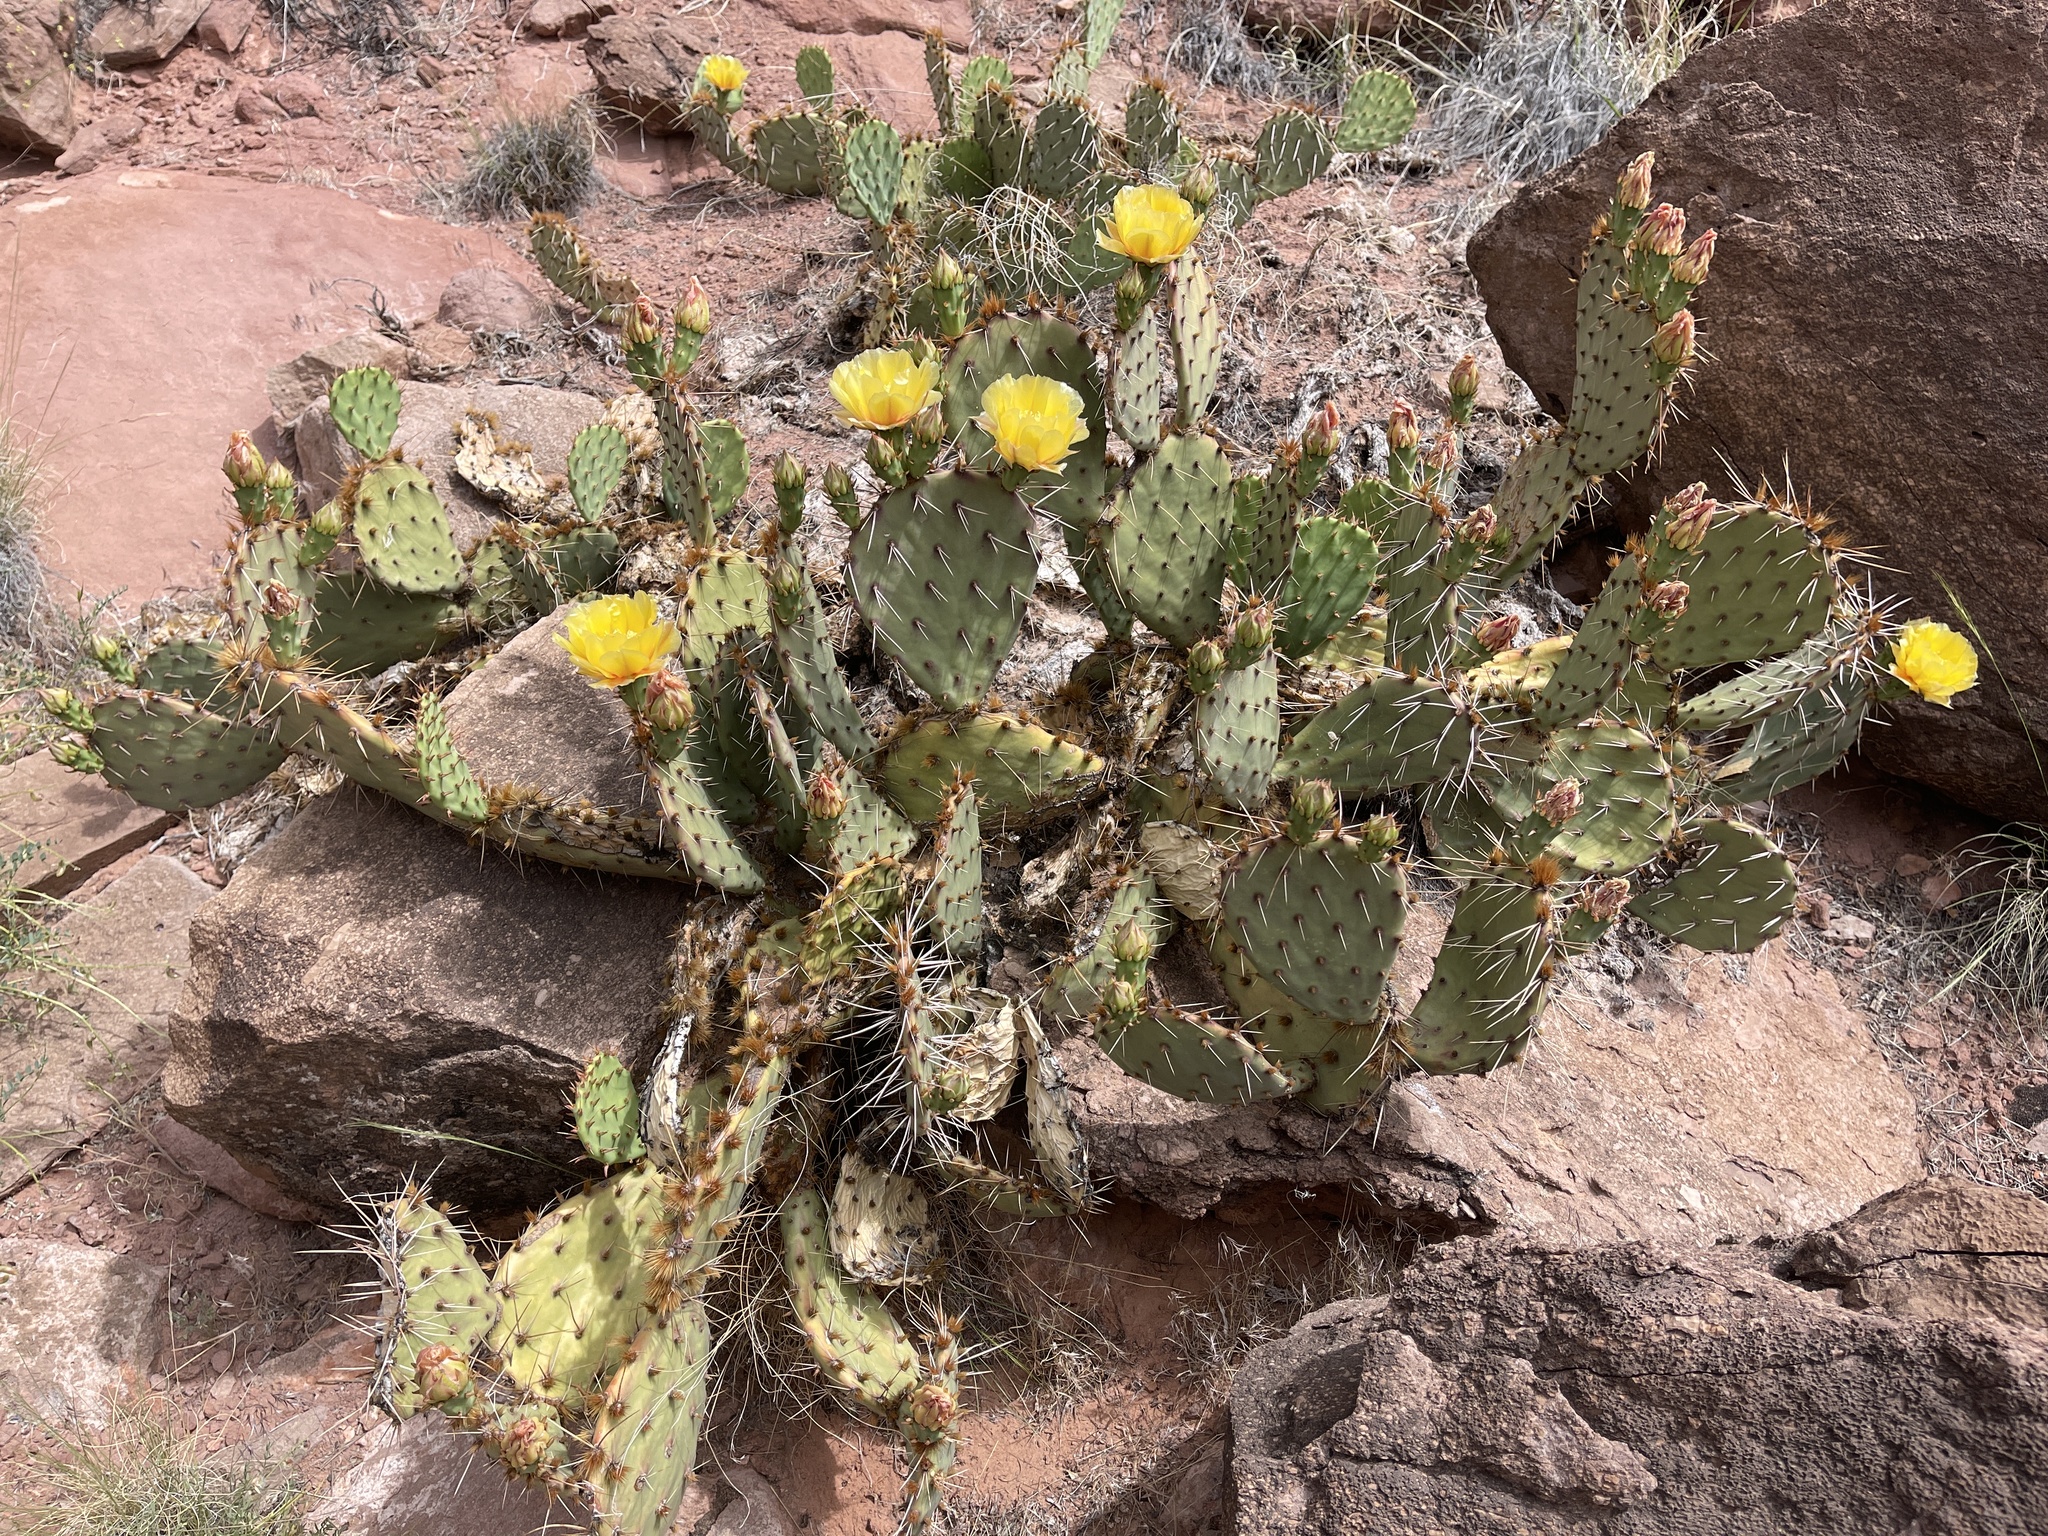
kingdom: Plantae
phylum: Tracheophyta
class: Magnoliopsida
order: Caryophyllales
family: Cactaceae
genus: Opuntia
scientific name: Opuntia phaeacantha
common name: New mexico prickly-pear
